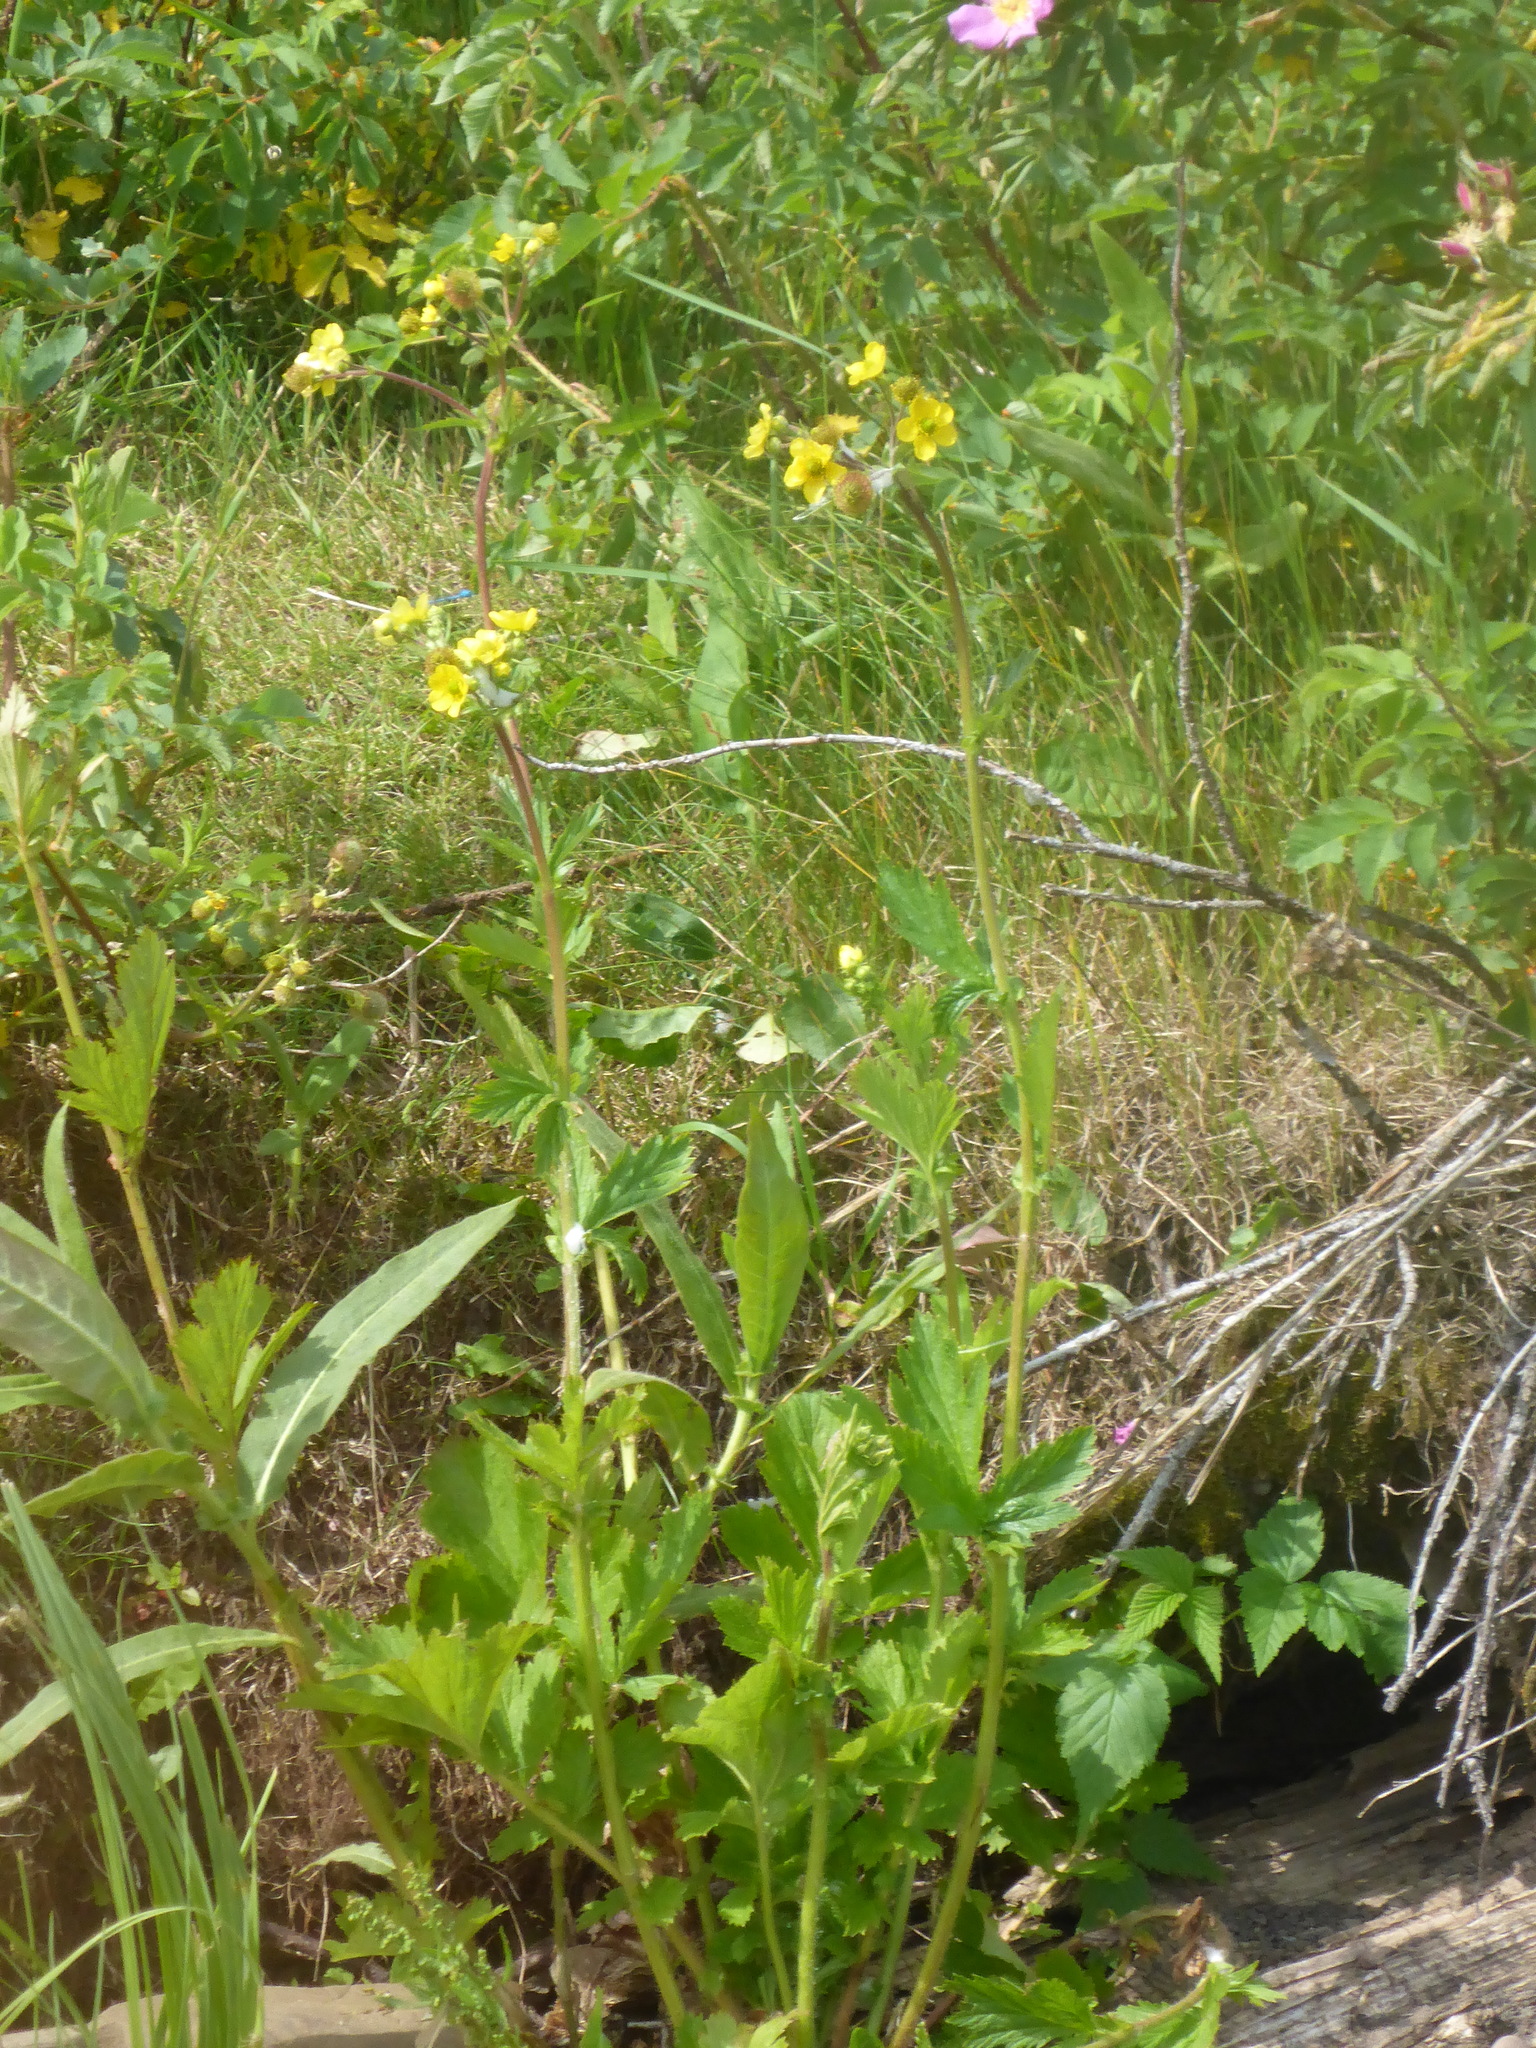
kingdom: Plantae
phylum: Tracheophyta
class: Magnoliopsida
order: Rosales
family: Rosaceae
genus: Geum
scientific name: Geum aleppicum
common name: Yellow avens
